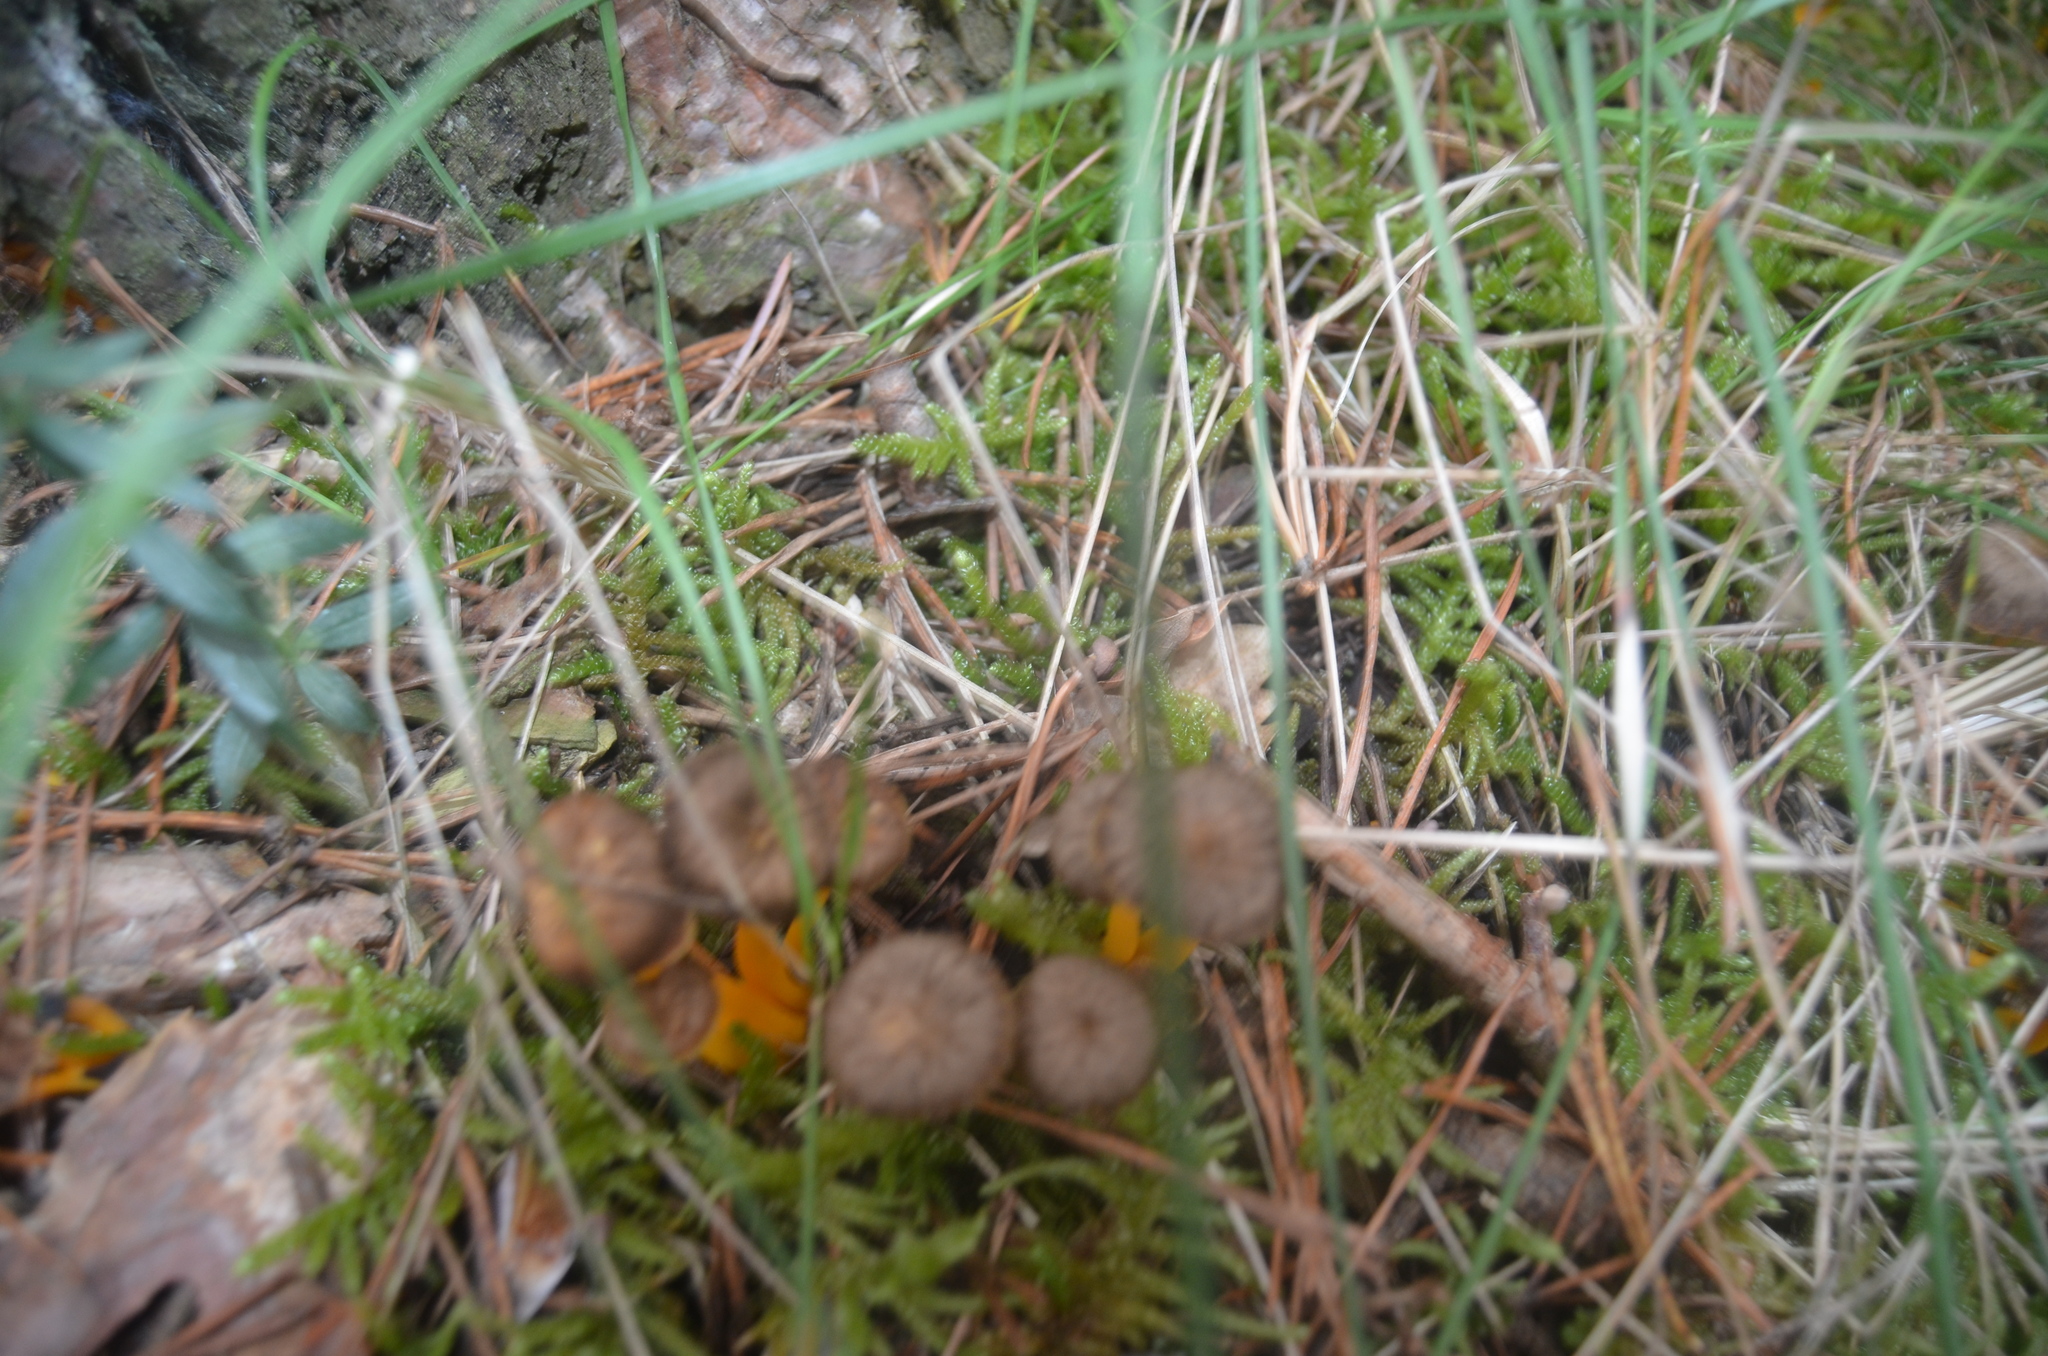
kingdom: Fungi
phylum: Basidiomycota
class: Agaricomycetes
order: Cantharellales
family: Hydnaceae
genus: Craterellus
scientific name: Craterellus lutescens
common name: Golden chanterelle
